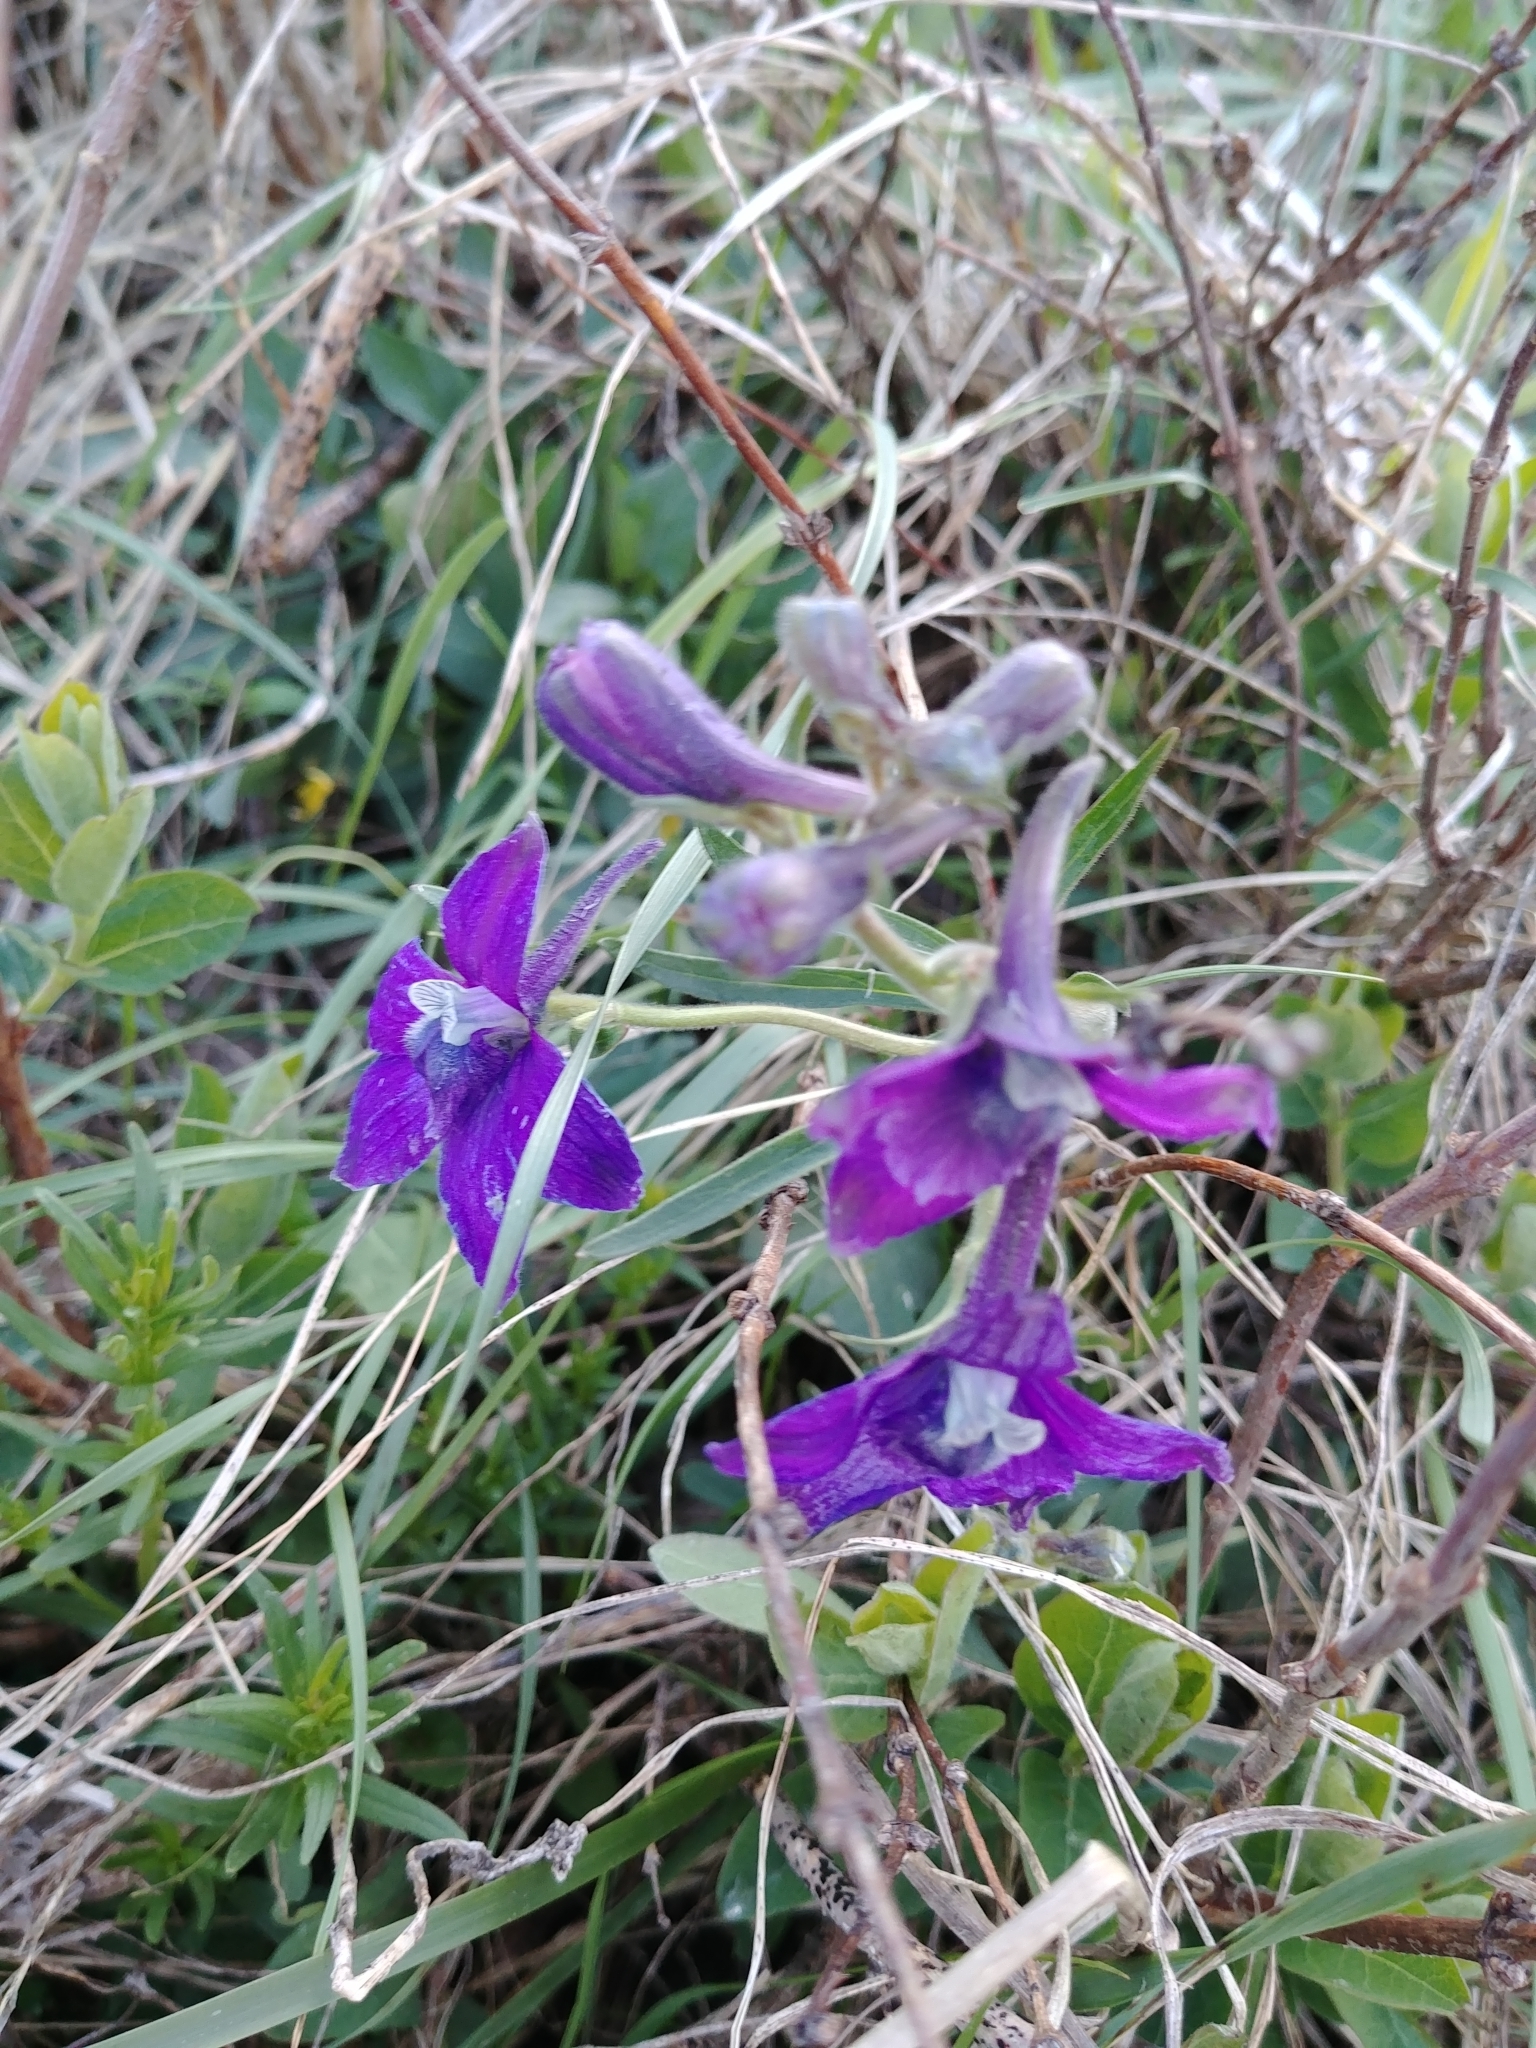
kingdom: Plantae
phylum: Tracheophyta
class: Magnoliopsida
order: Ranunculales
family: Ranunculaceae
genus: Delphinium
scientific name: Delphinium bicolor
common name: Low larkspur
